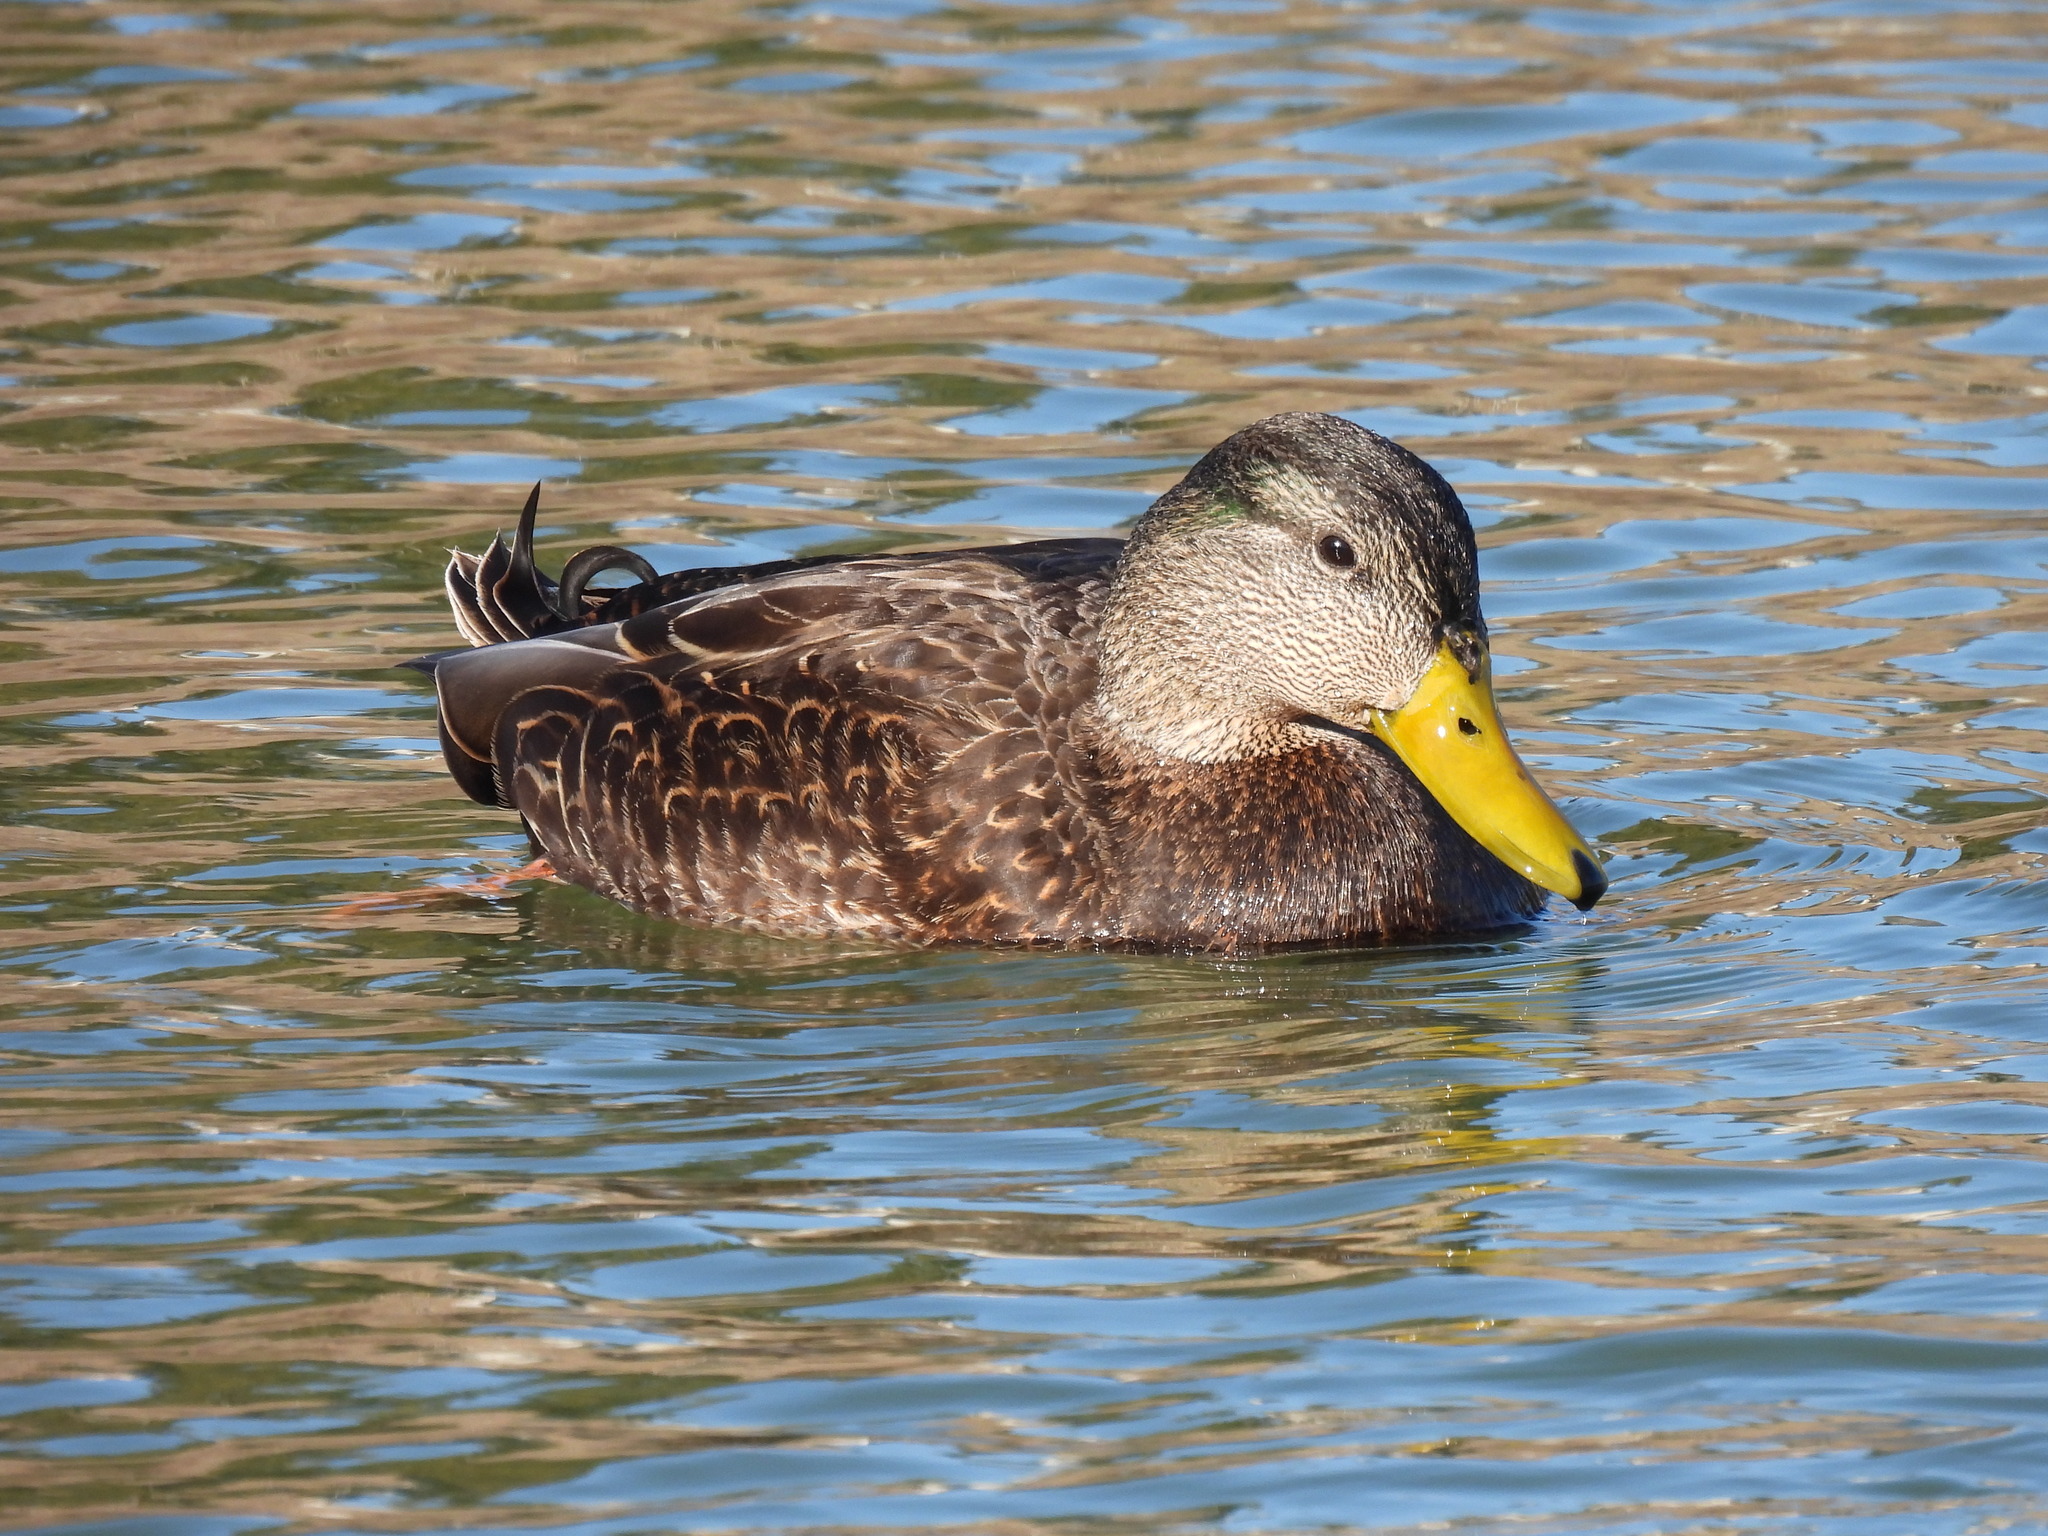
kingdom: Animalia
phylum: Chordata
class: Aves
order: Anseriformes
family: Anatidae
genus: Anas
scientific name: Anas
